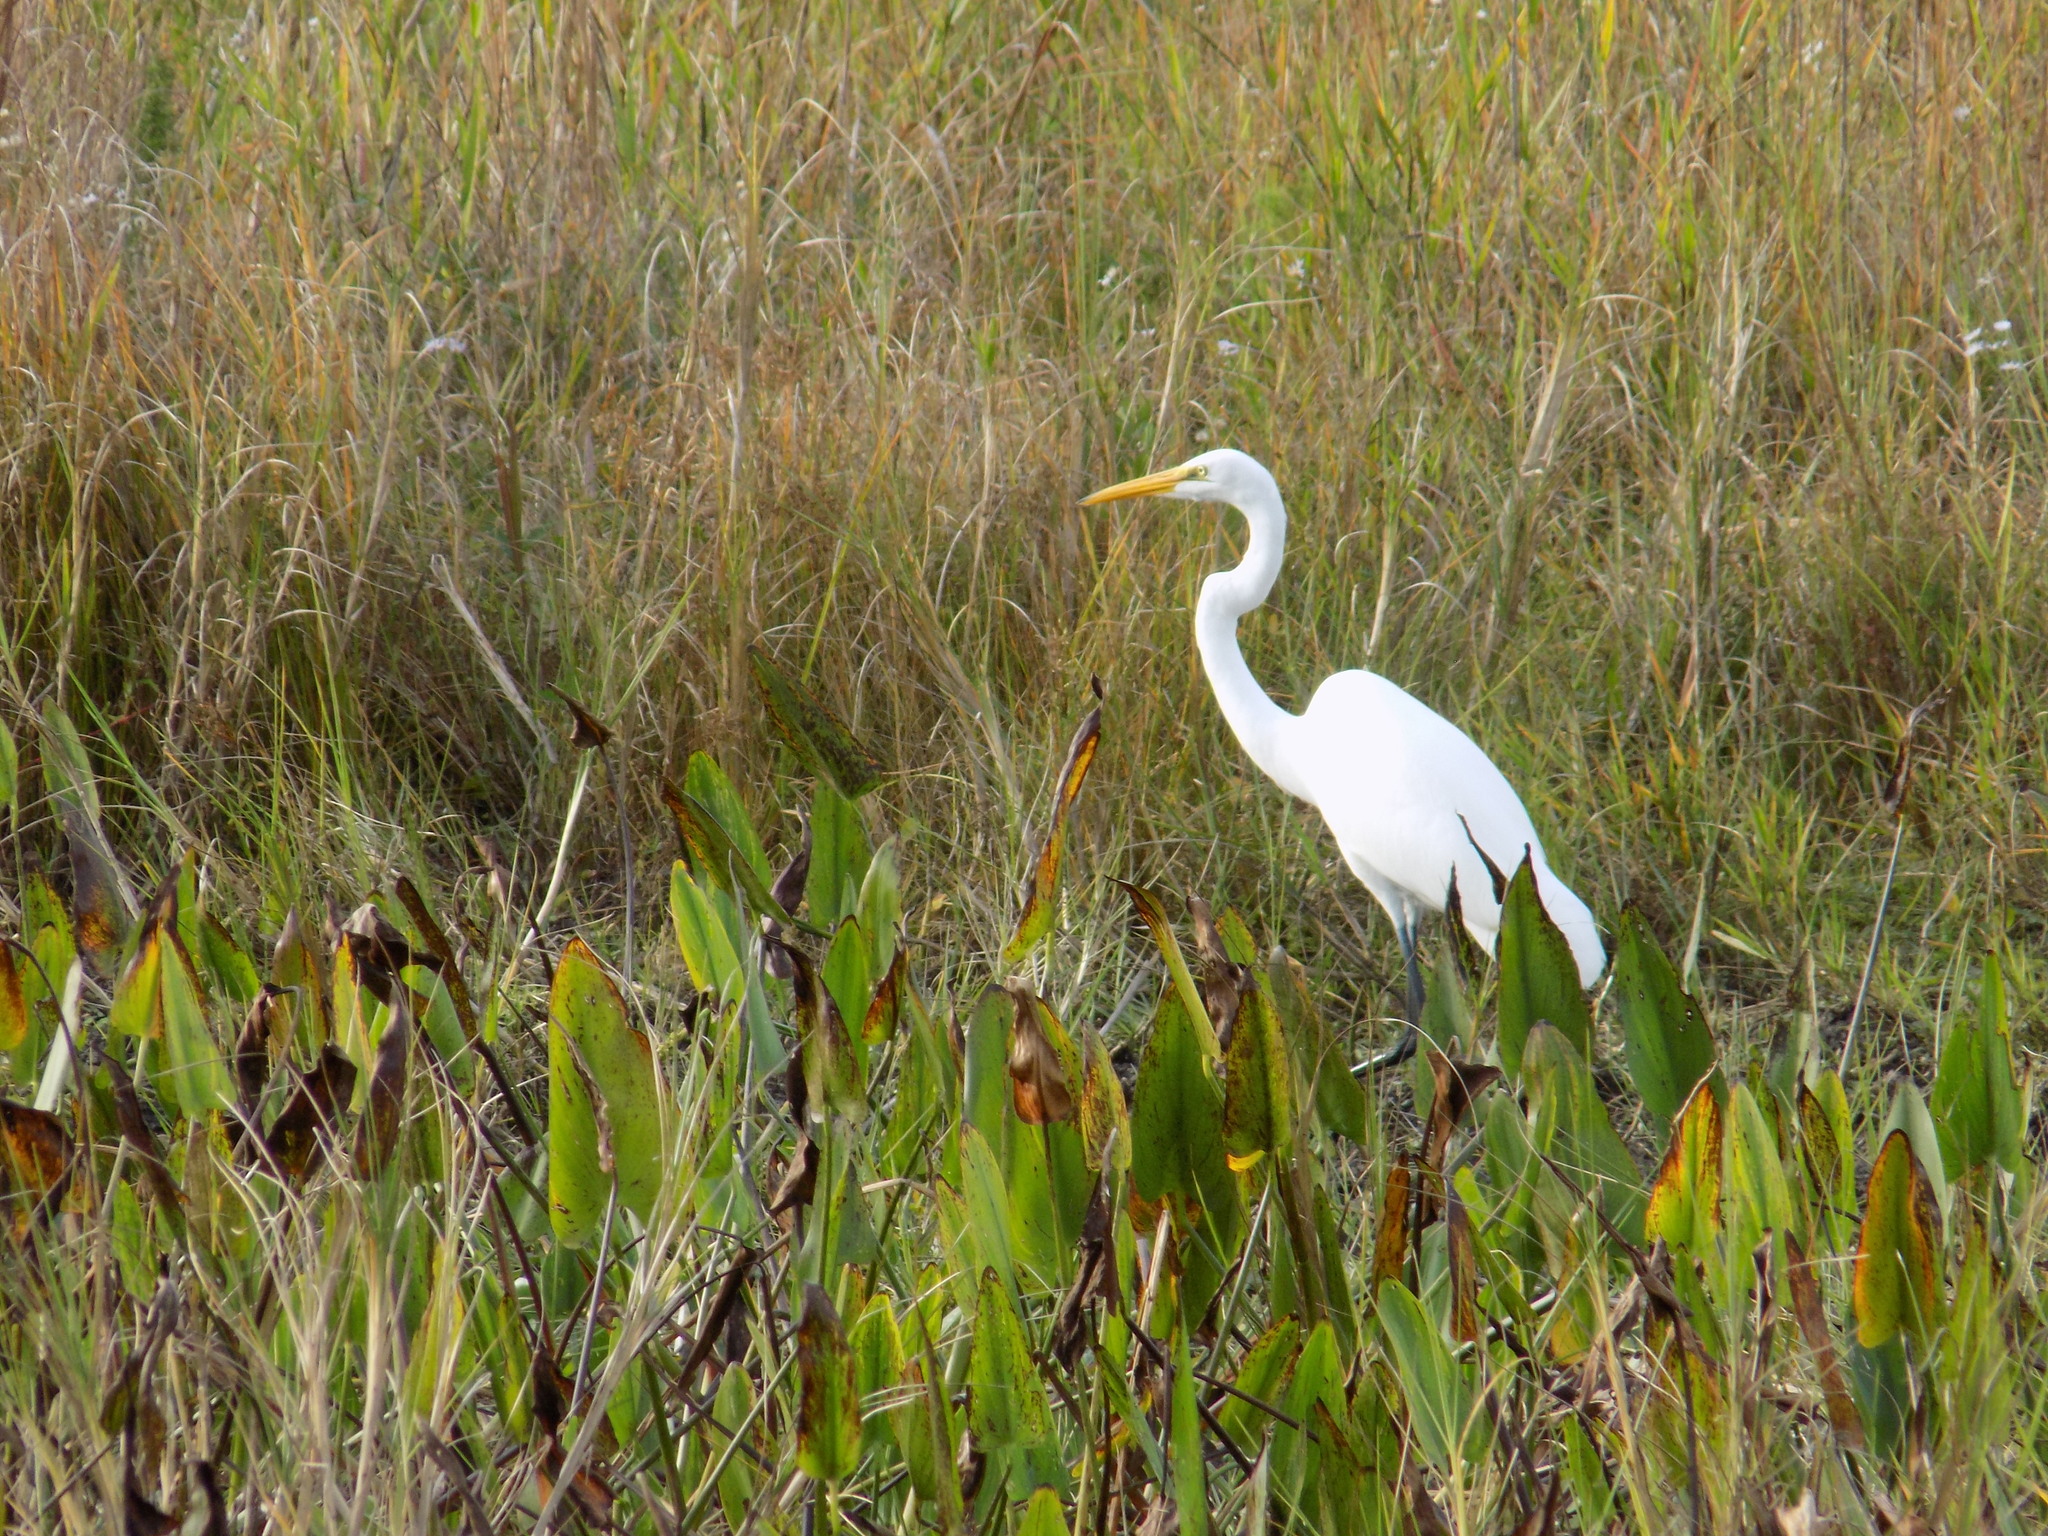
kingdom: Animalia
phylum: Chordata
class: Aves
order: Pelecaniformes
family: Ardeidae
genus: Ardea
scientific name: Ardea alba
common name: Great egret
